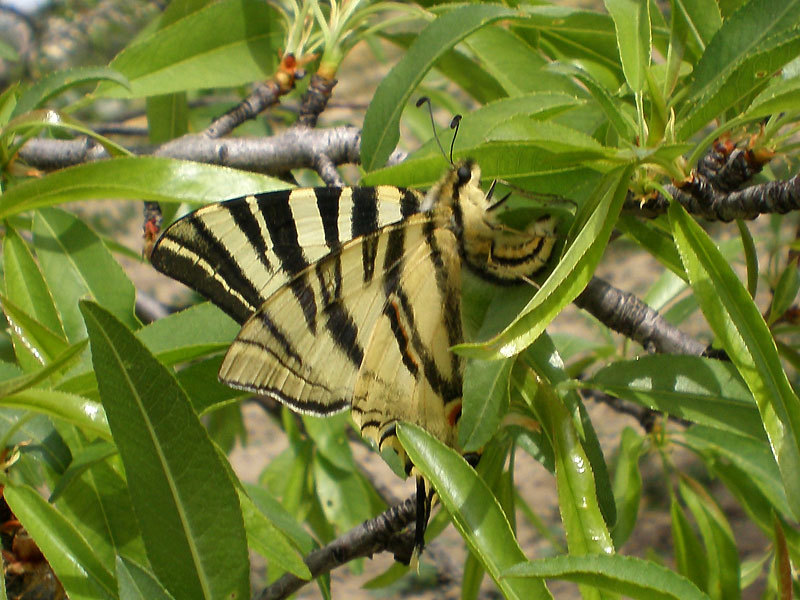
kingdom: Animalia
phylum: Arthropoda
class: Insecta
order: Lepidoptera
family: Papilionidae
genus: Iphiclides
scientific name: Iphiclides feisthamelii
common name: Iberian scarce swallowtail
